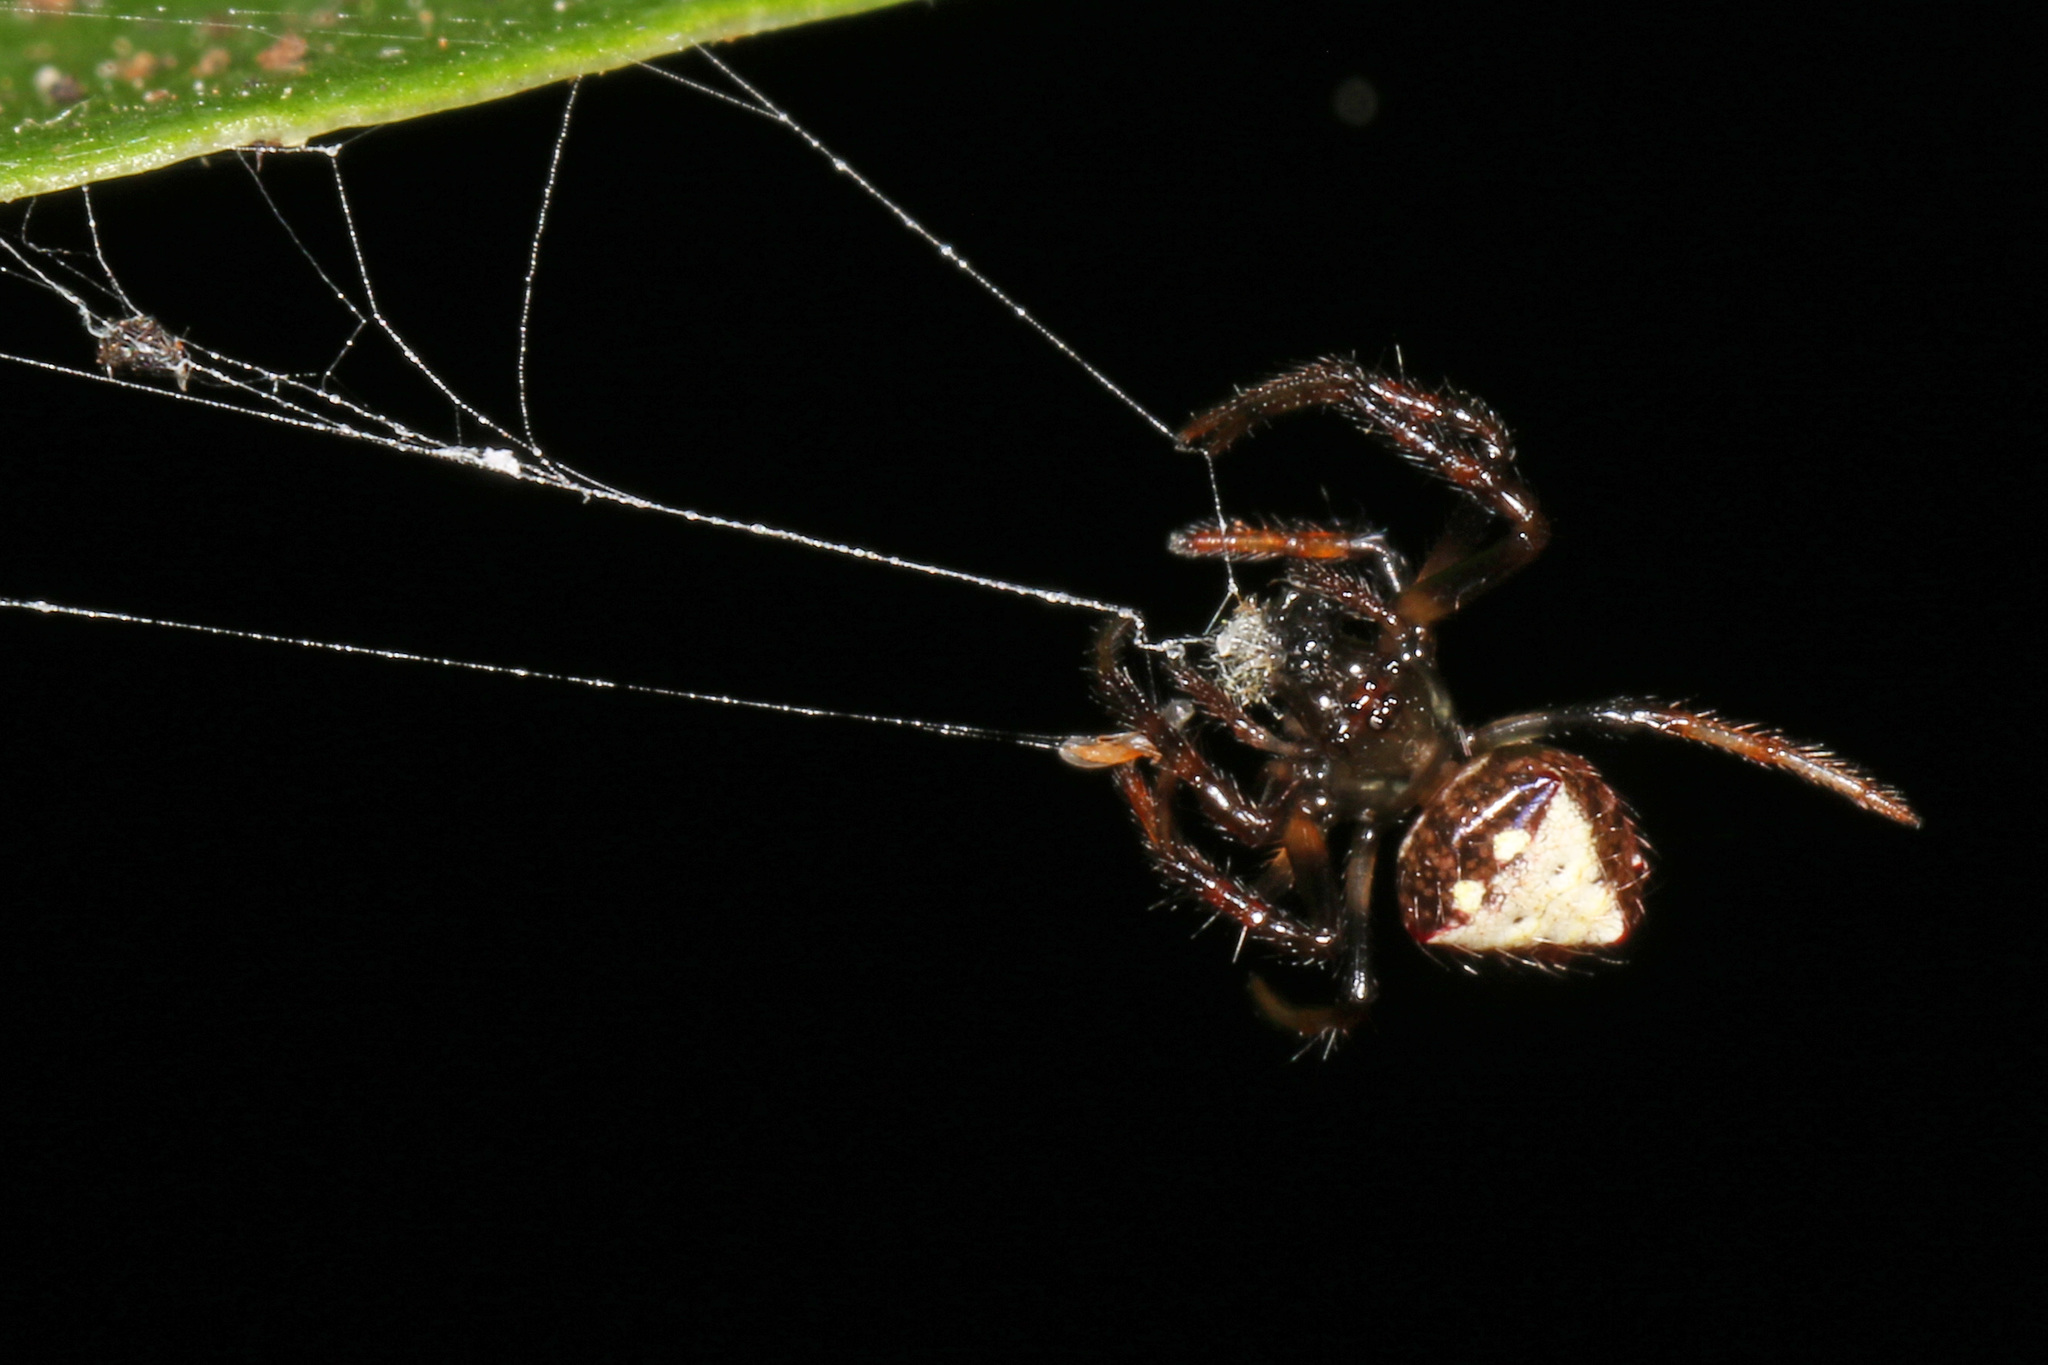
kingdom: Animalia
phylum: Arthropoda
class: Arachnida
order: Araneae
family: Araneidae
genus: Verrucosa
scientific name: Verrucosa arenata
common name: Orb weavers
